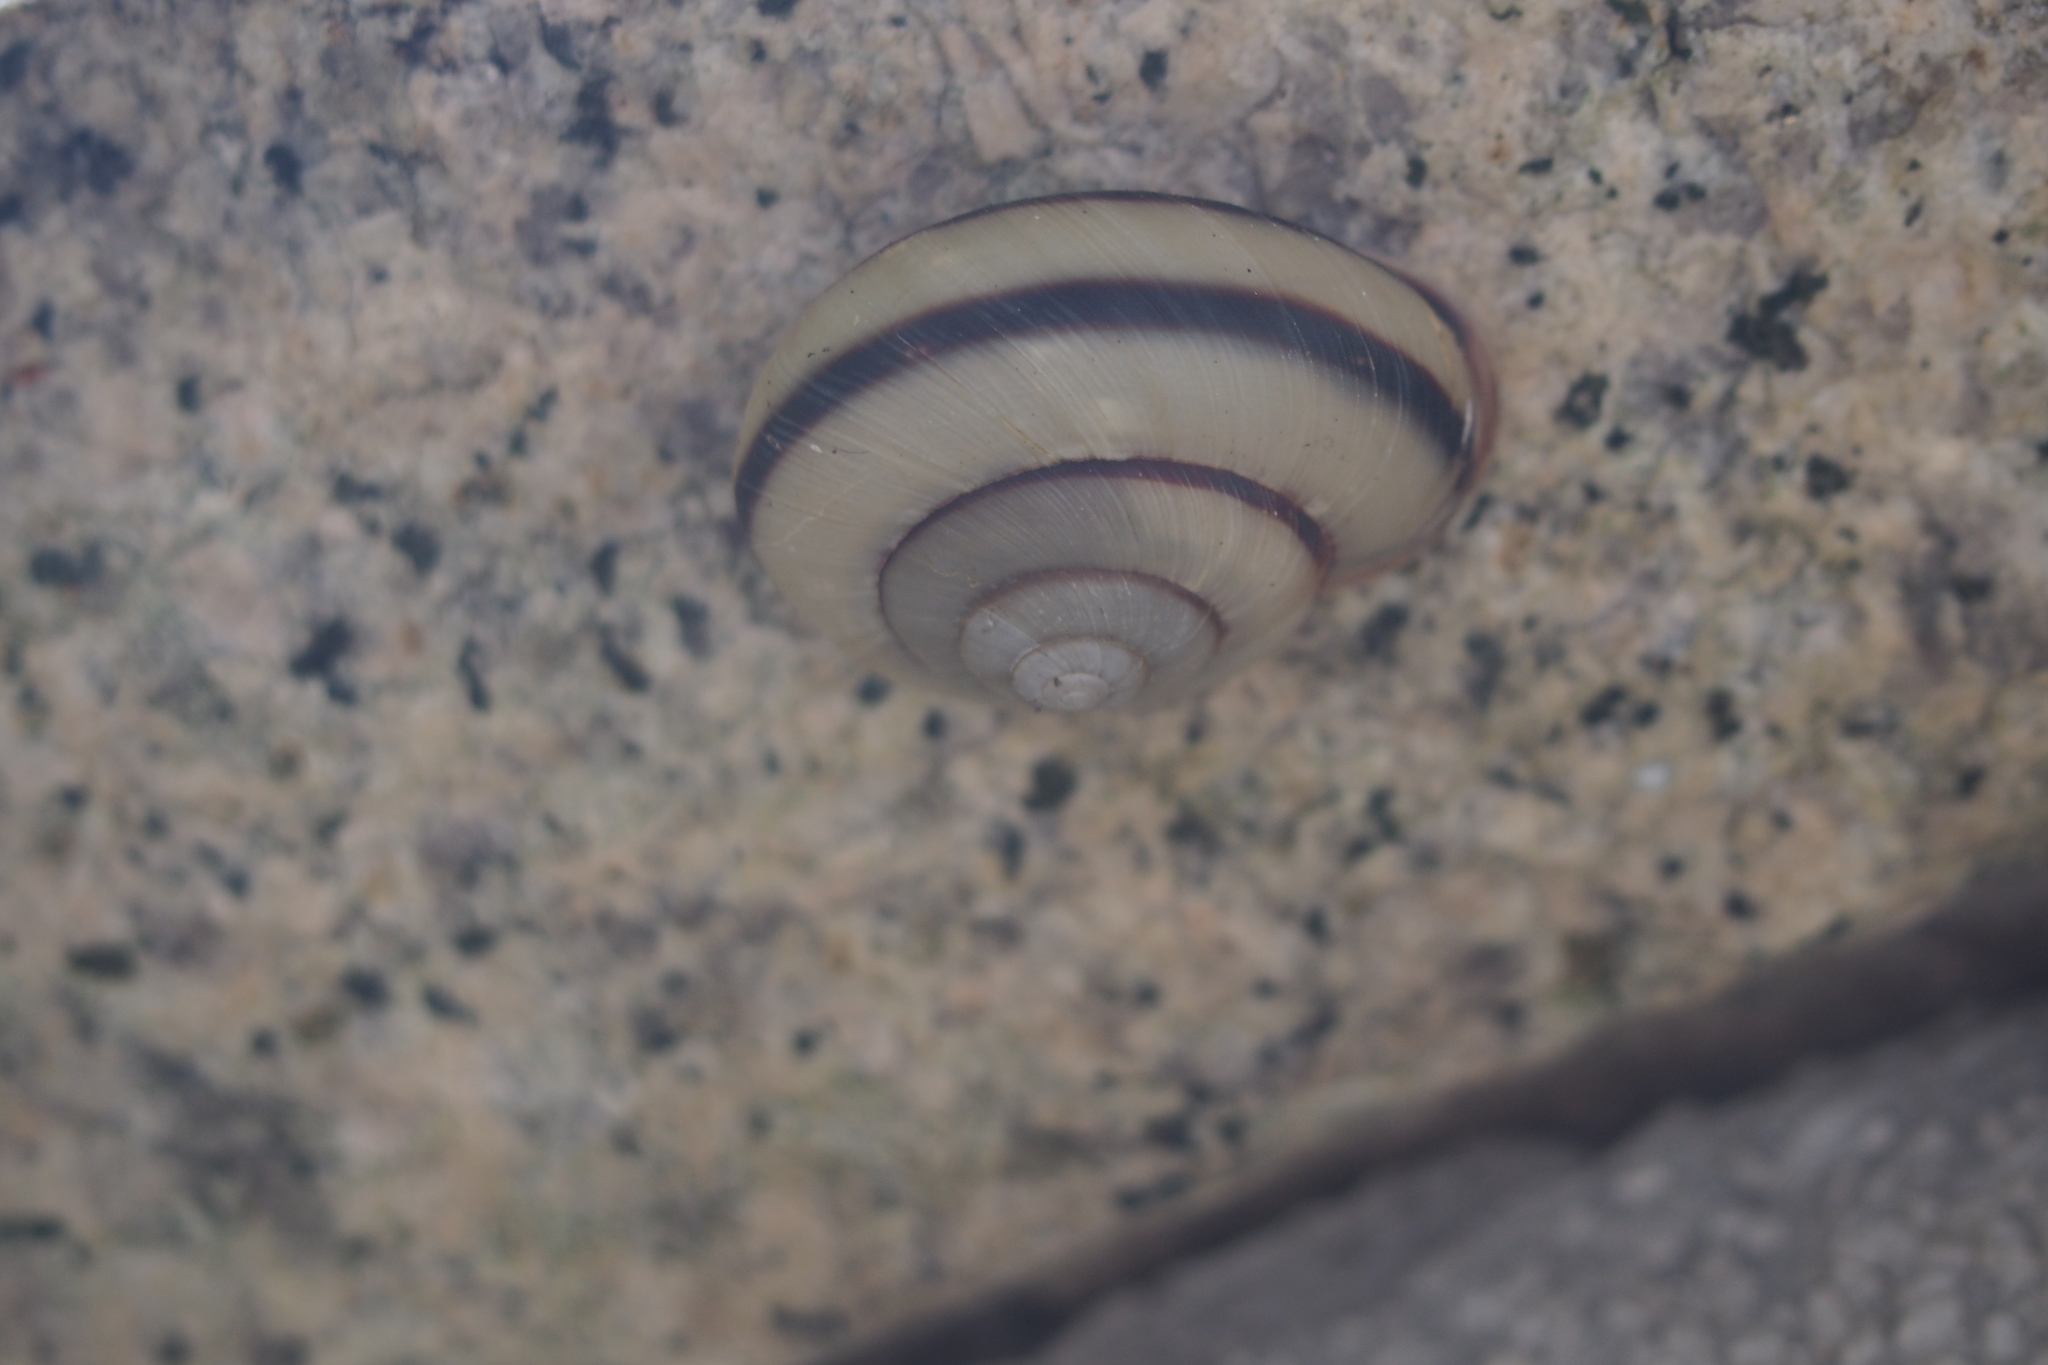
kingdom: Animalia
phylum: Mollusca
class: Gastropoda
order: Stylommatophora
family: Camaenidae
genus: Euhadra
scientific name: Euhadra amaliae
